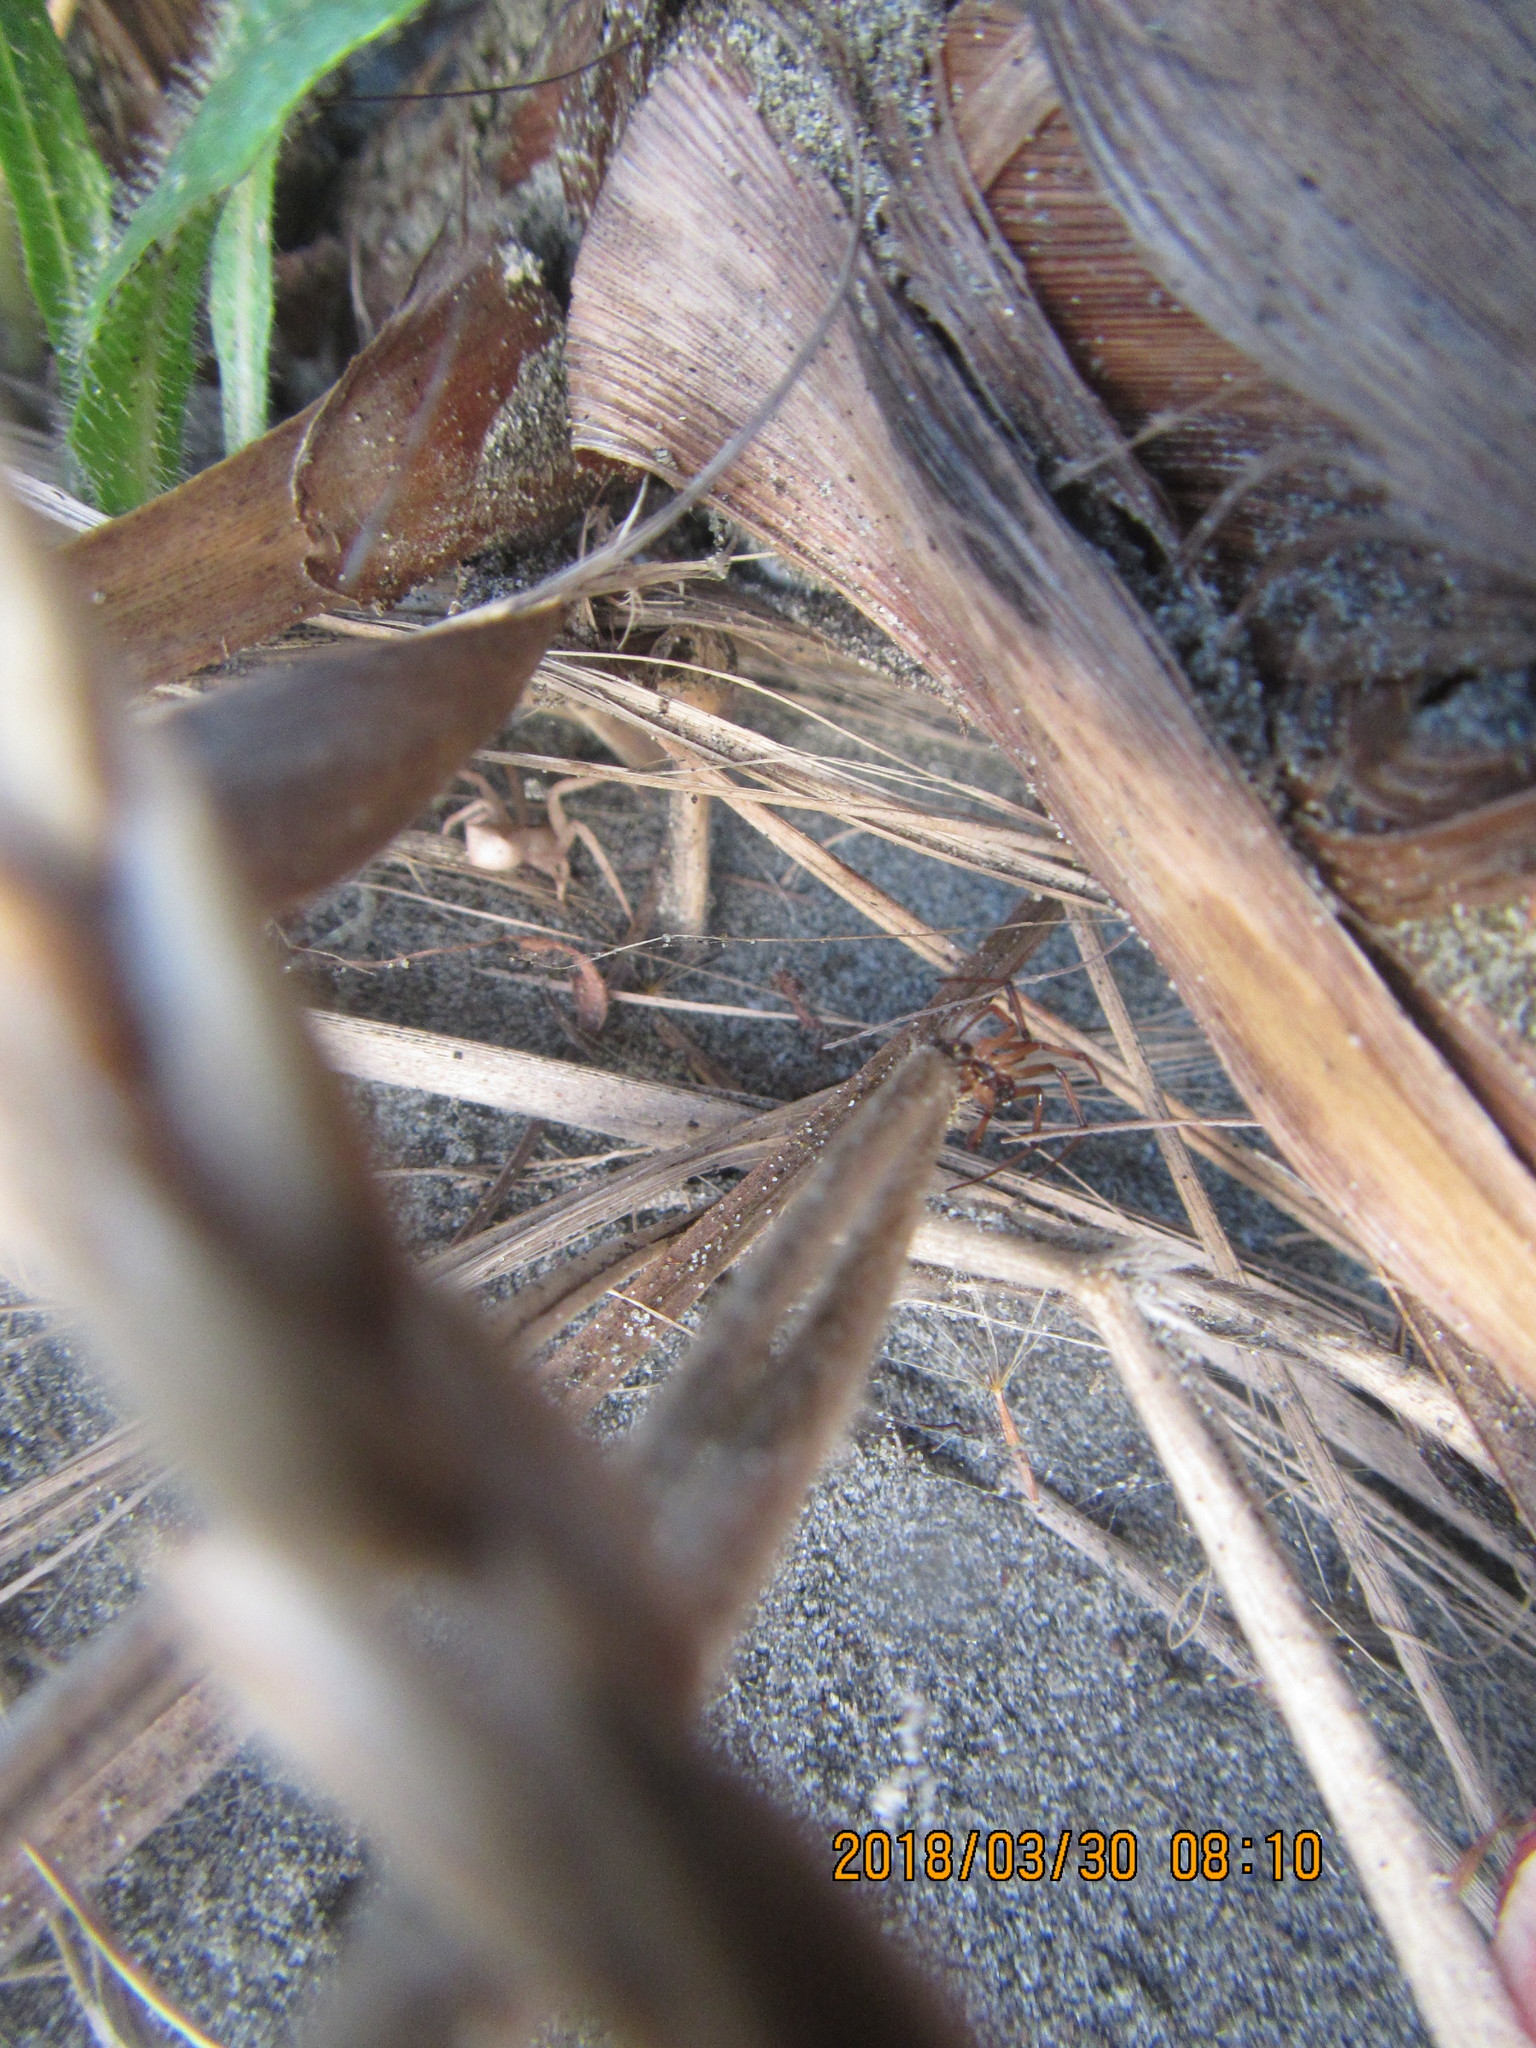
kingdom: Animalia
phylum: Arthropoda
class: Arachnida
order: Araneae
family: Thomisidae
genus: Sidymella
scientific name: Sidymella trapezia
